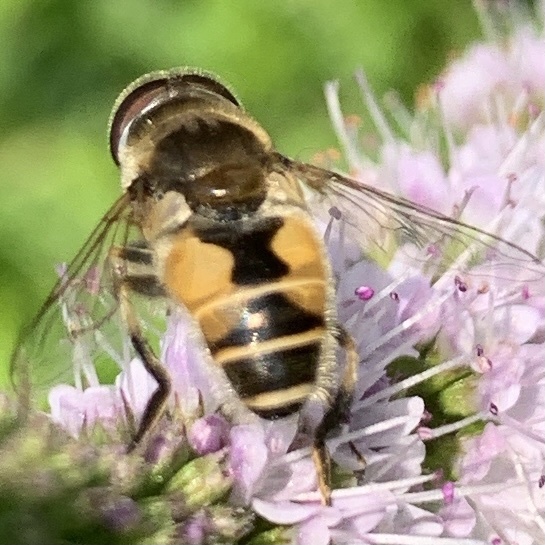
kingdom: Animalia
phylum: Arthropoda
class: Insecta
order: Diptera
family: Syrphidae
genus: Eristalis
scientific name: Eristalis arbustorum
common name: Hover fly
